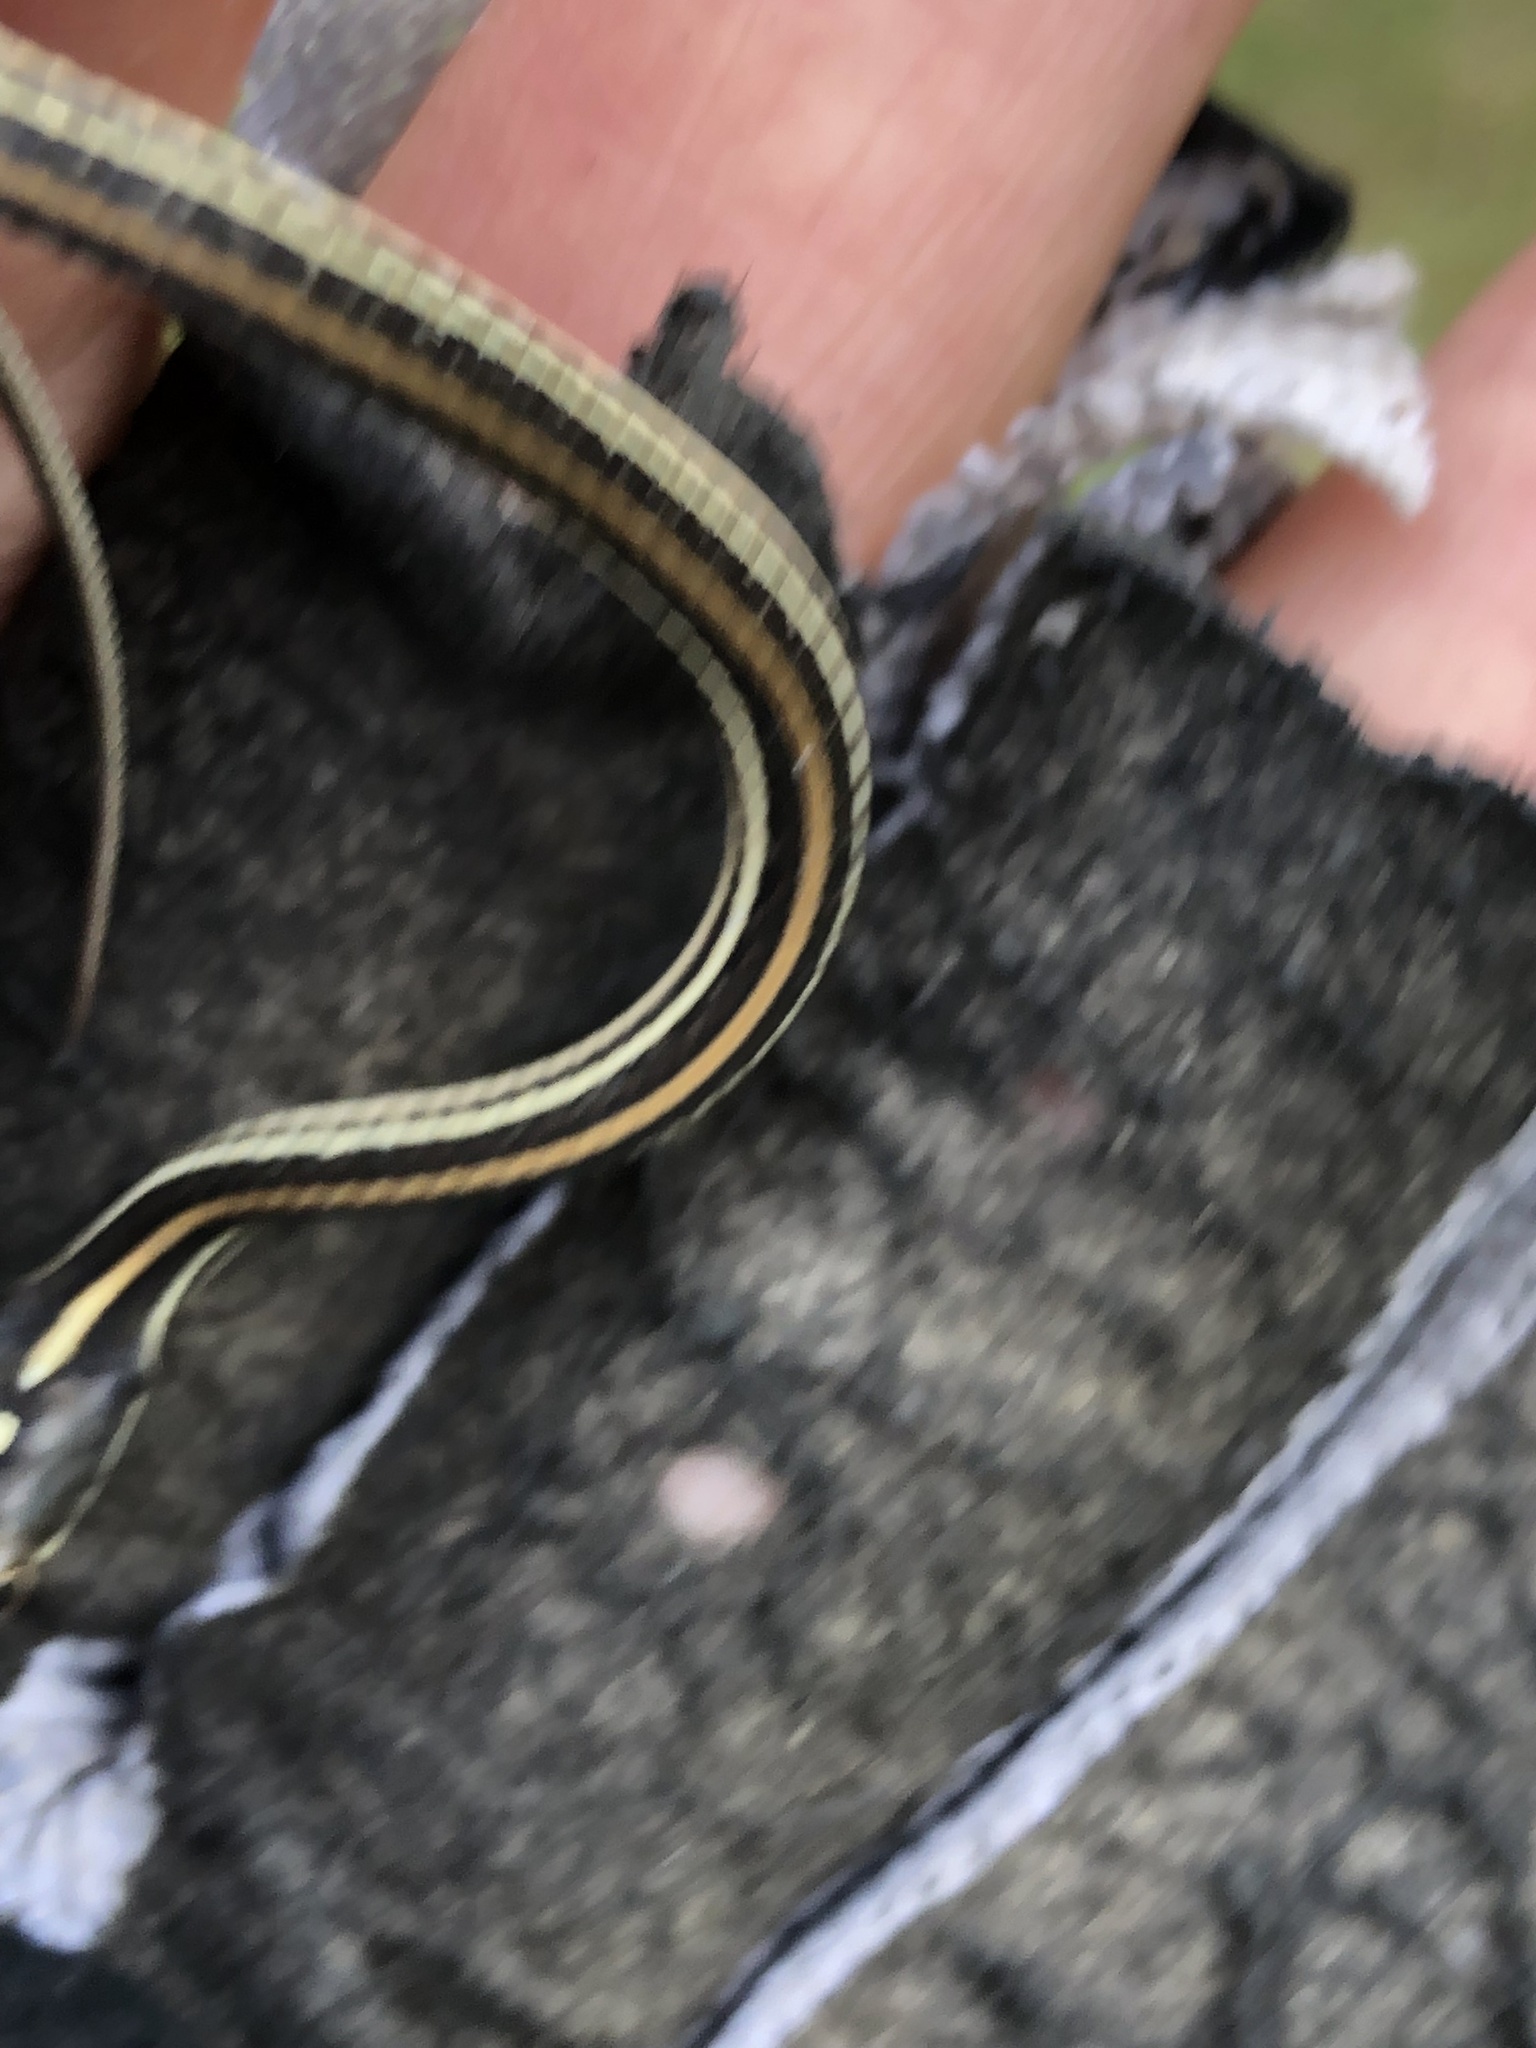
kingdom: Animalia
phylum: Chordata
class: Squamata
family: Colubridae
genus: Thamnophis
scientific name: Thamnophis proximus
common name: Western ribbon snake
